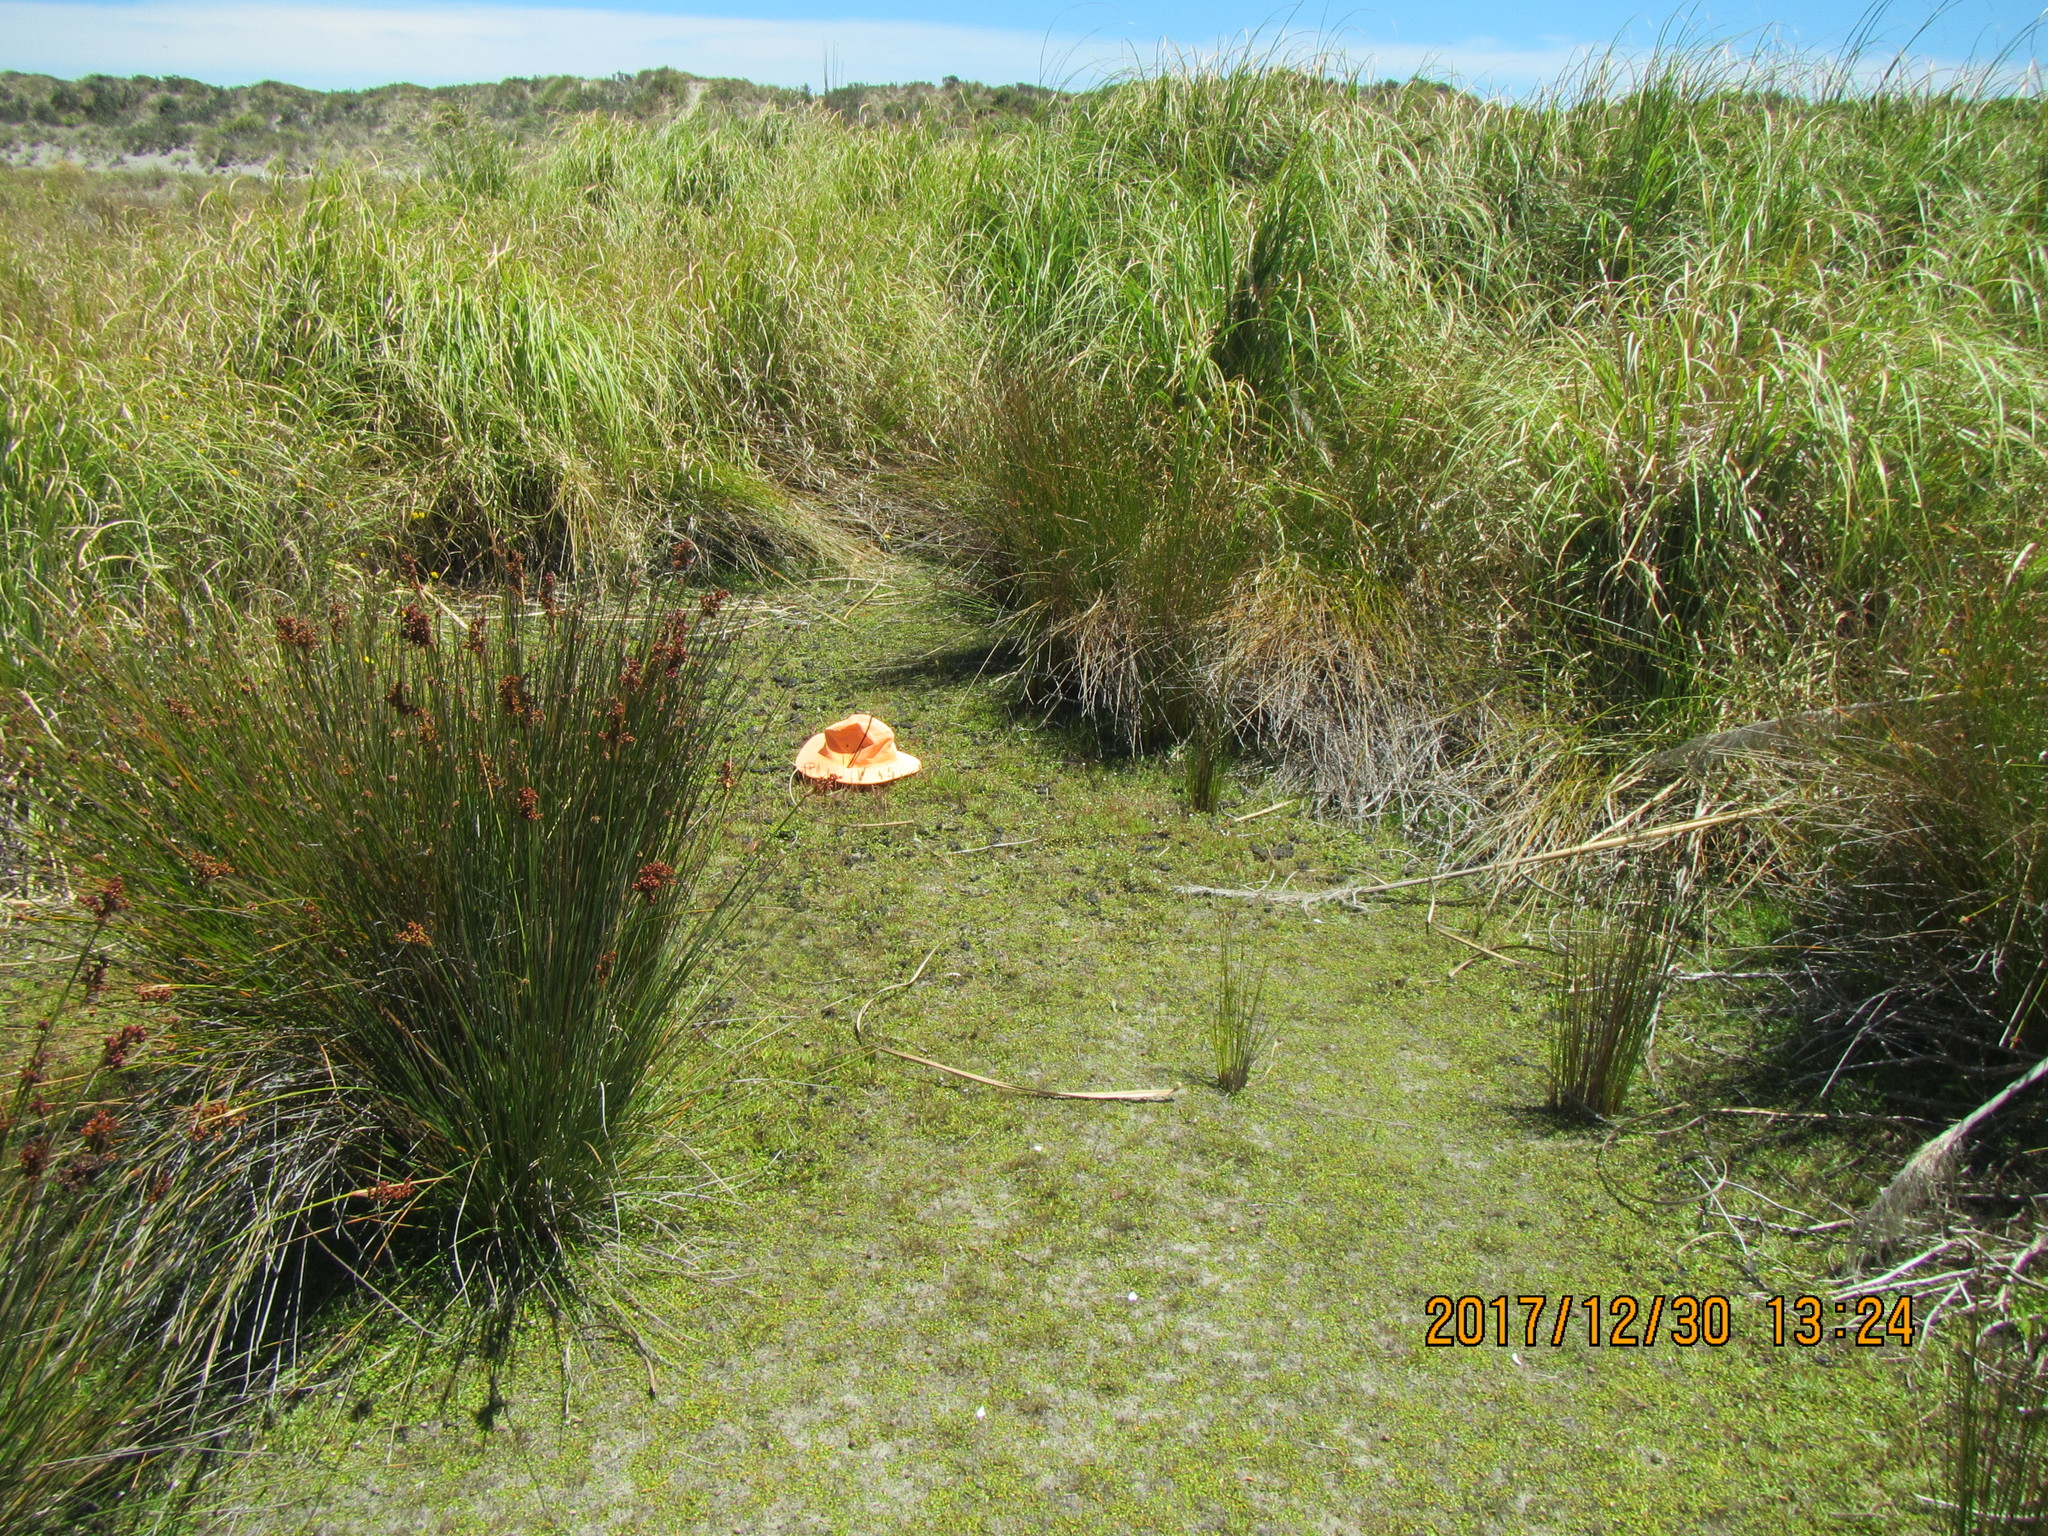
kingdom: Plantae
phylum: Tracheophyta
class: Magnoliopsida
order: Lamiales
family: Plantaginaceae
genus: Plantago
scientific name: Plantago coronopus
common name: Buck's-horn plantain
